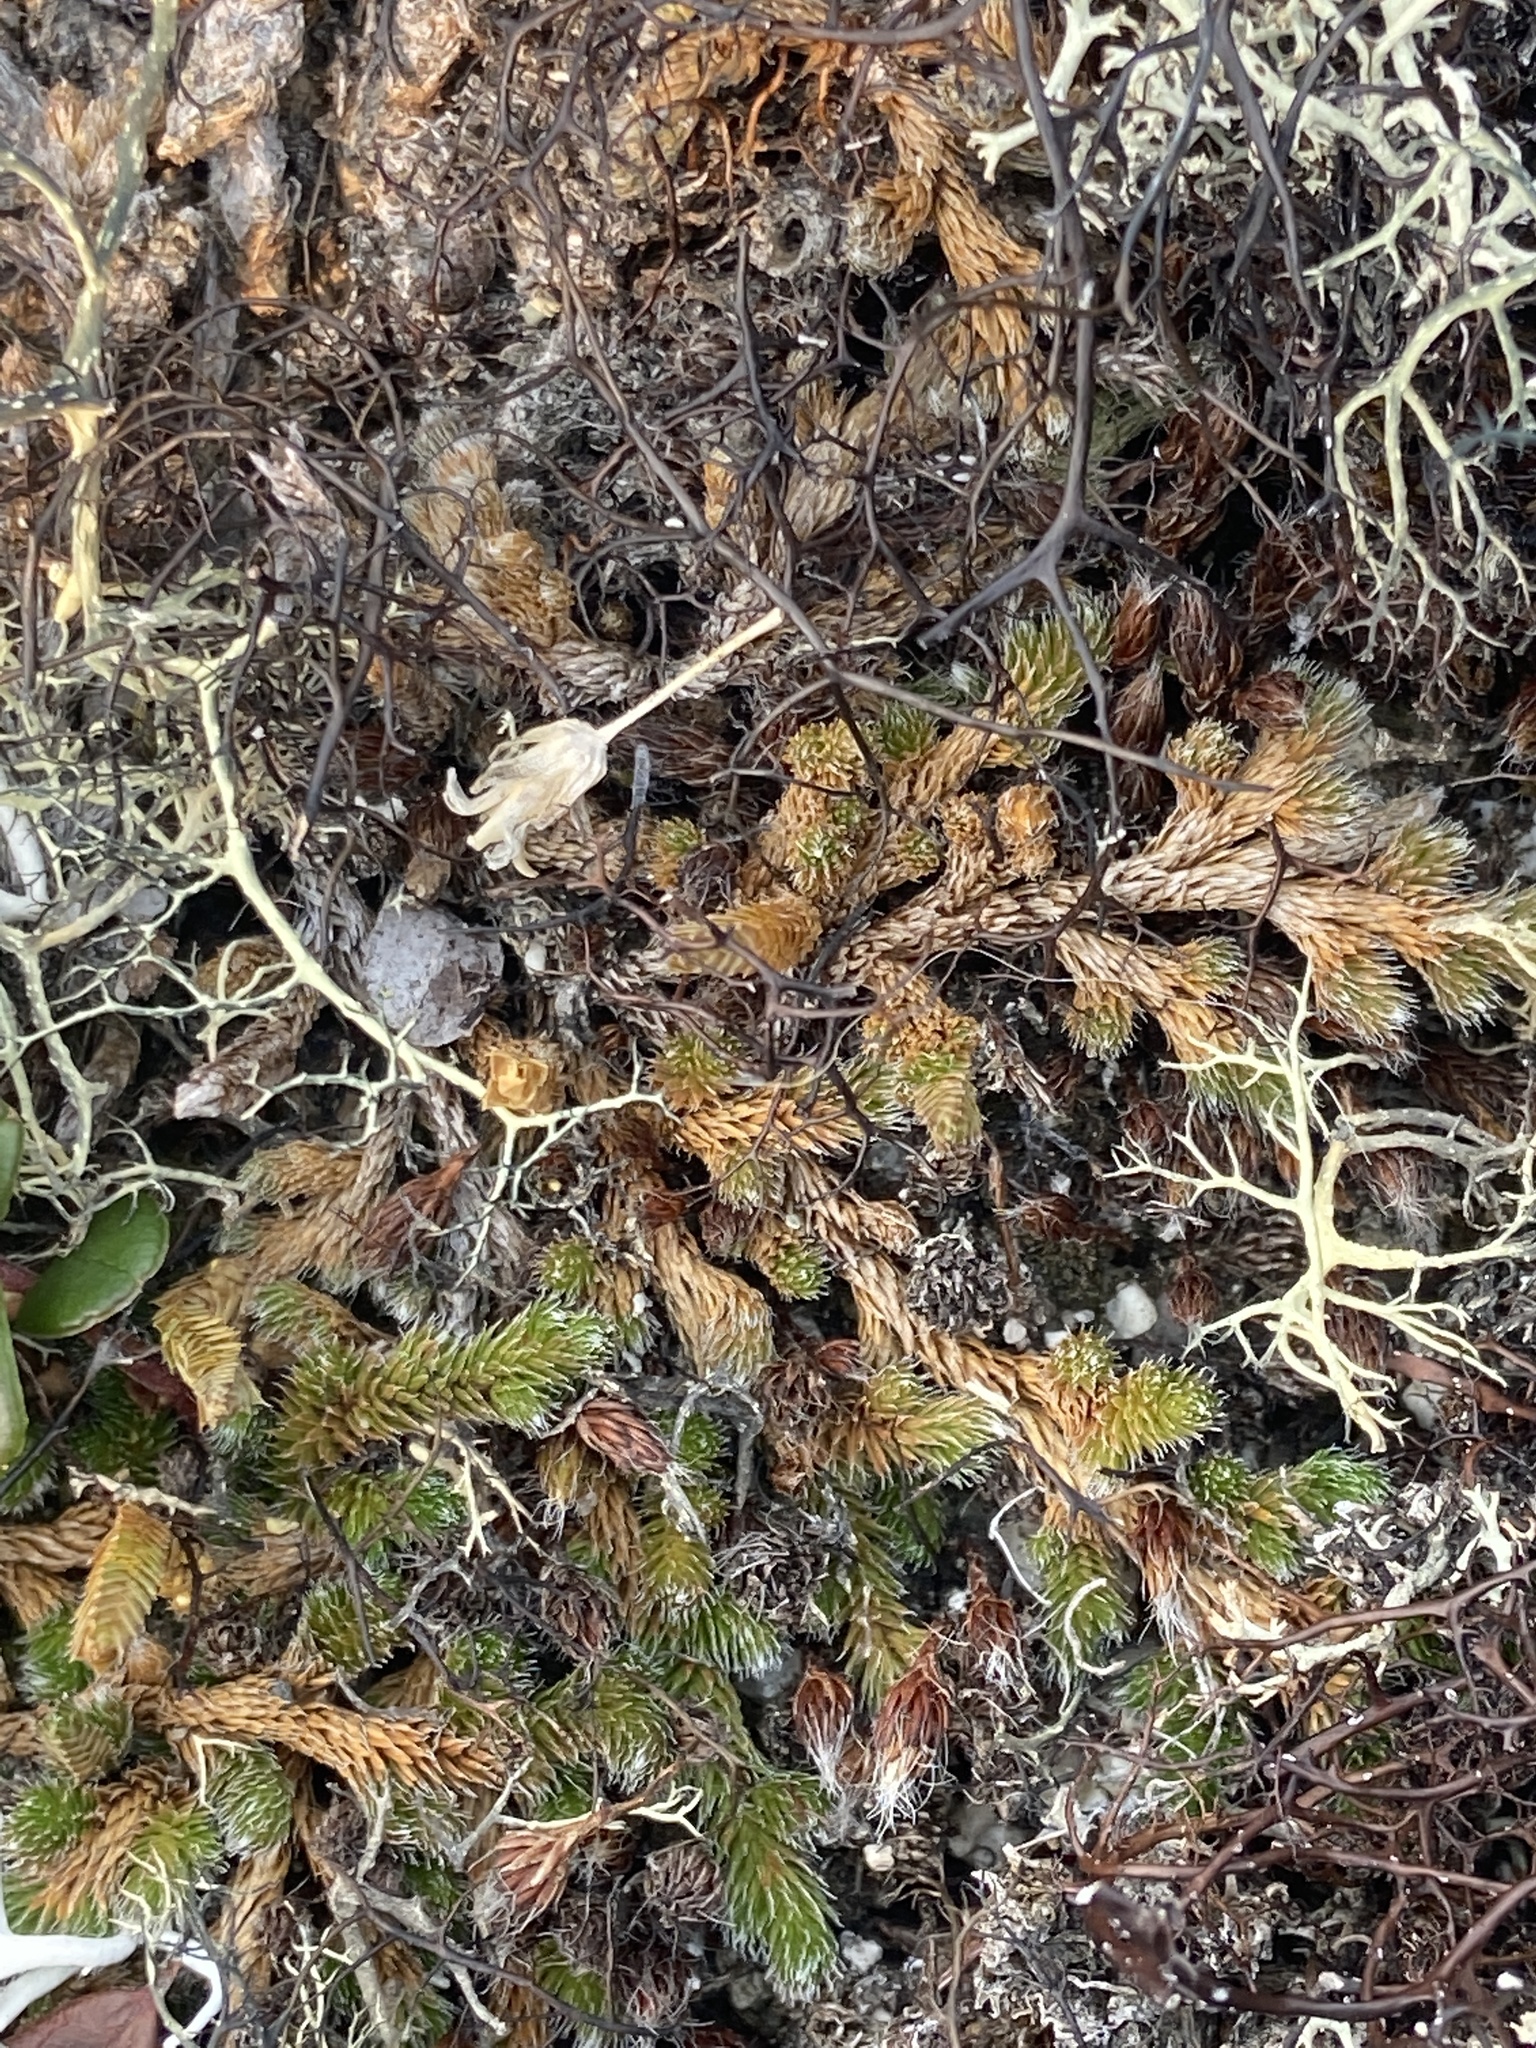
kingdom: Plantae
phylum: Tracheophyta
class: Lycopodiopsida
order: Selaginellales
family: Selaginellaceae
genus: Selaginella
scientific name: Selaginella rupestris
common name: Dwarf spikemoss
